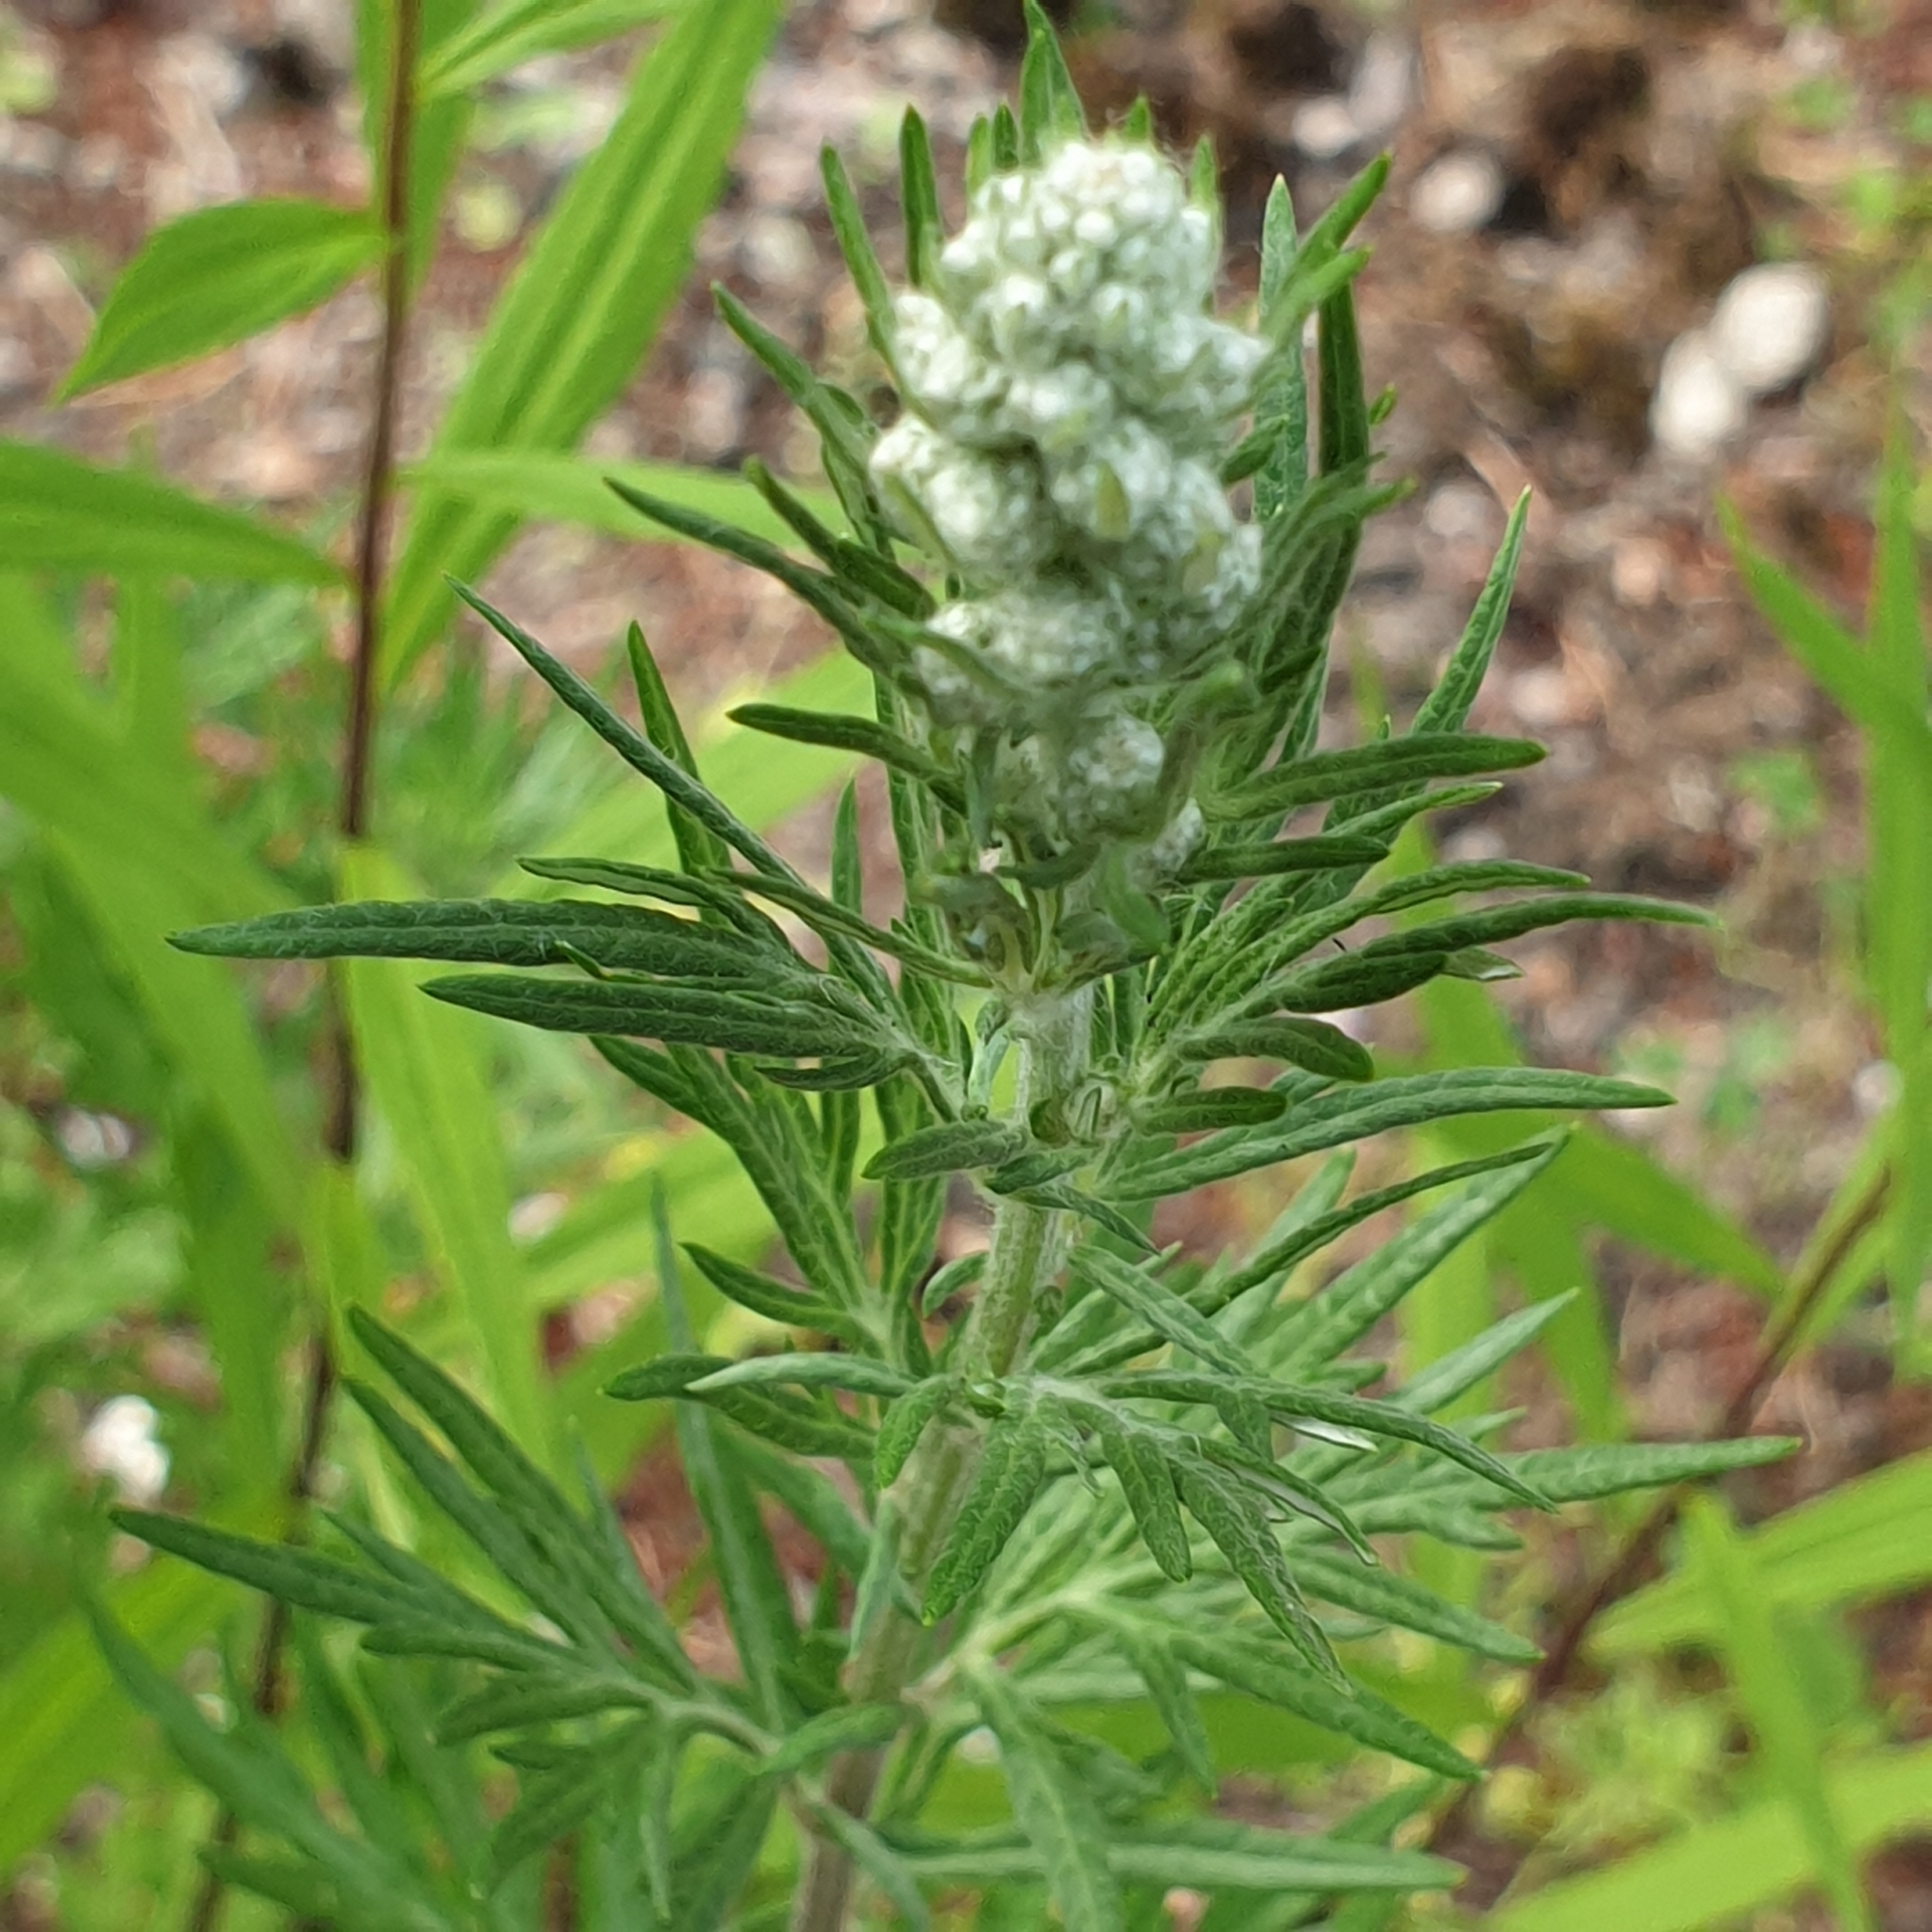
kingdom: Plantae
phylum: Tracheophyta
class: Magnoliopsida
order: Asterales
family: Asteraceae
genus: Artemisia
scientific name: Artemisia vulgaris
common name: Mugwort
